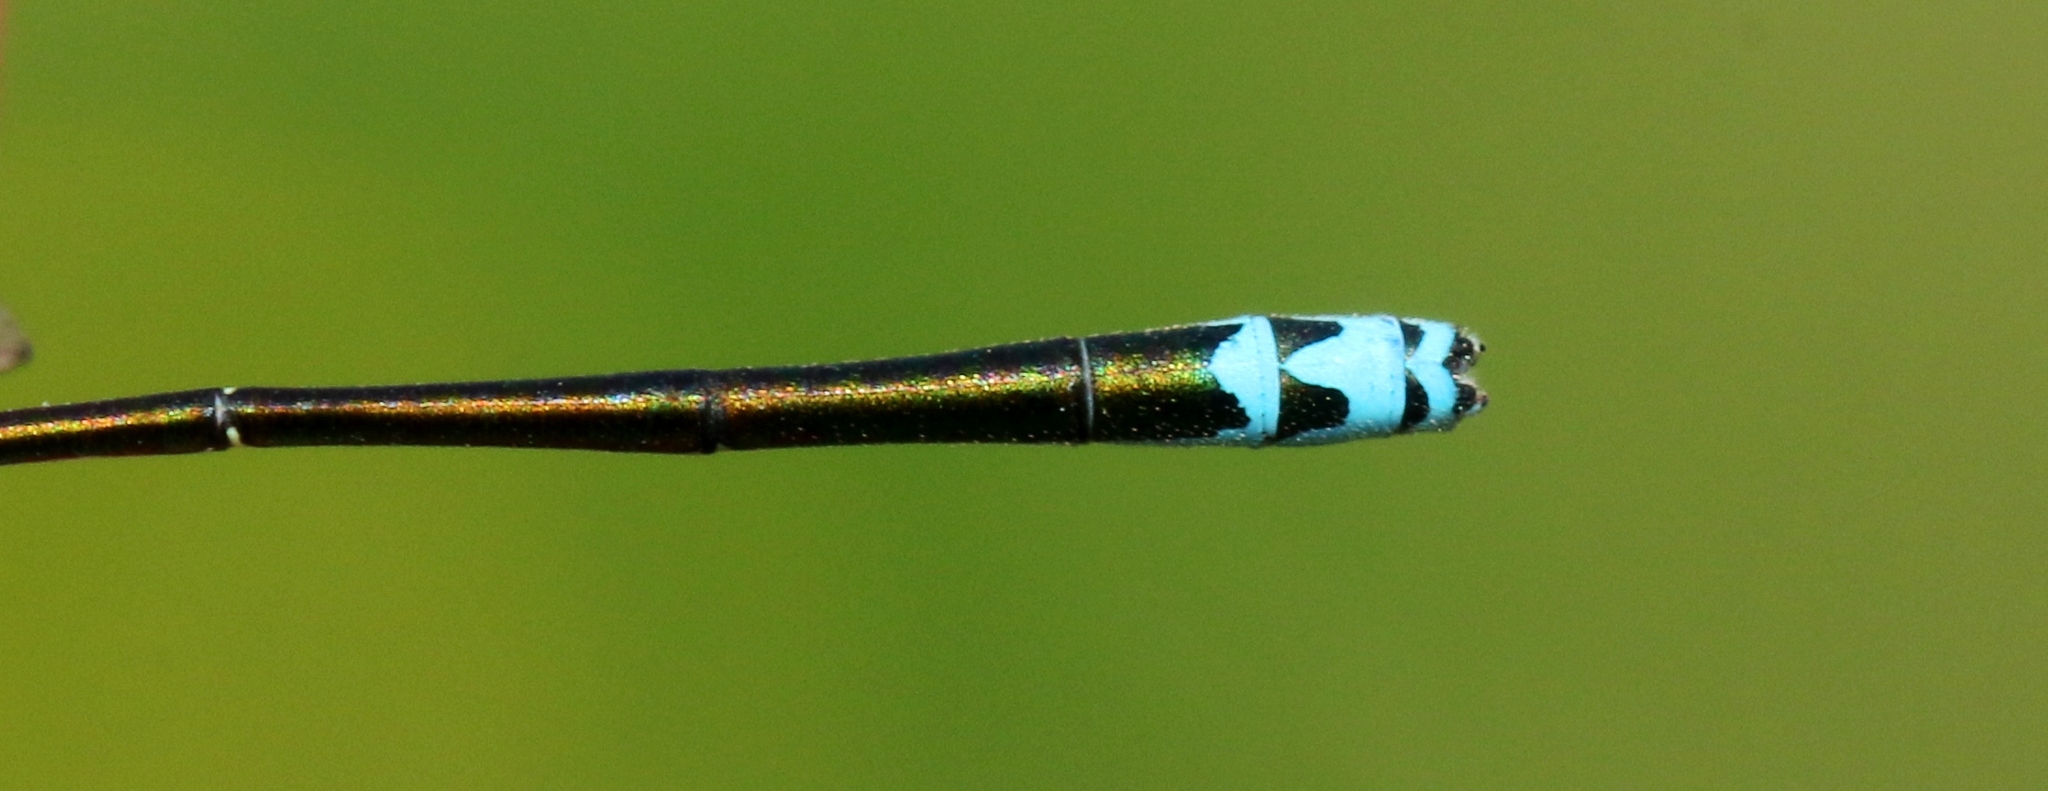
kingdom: Animalia
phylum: Arthropoda
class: Insecta
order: Odonata
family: Coenagrionidae
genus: Nehalennia
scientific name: Nehalennia irene
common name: Sedge sprite
